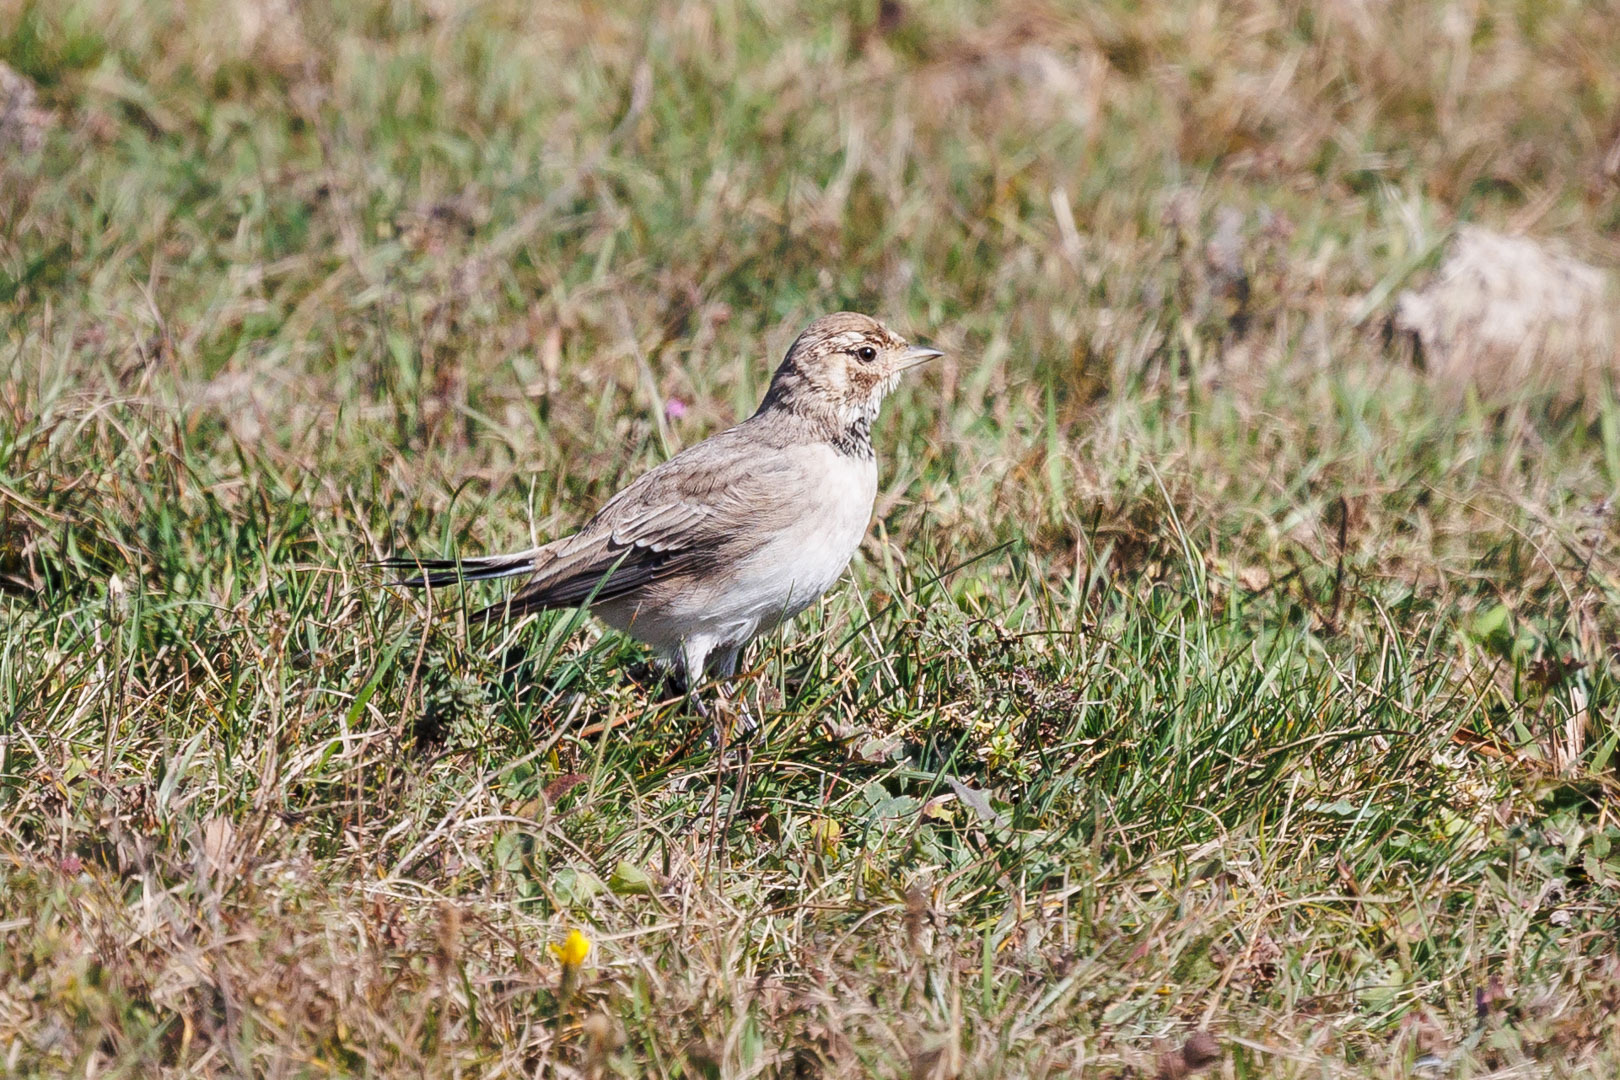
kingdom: Animalia
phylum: Chordata
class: Aves
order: Passeriformes
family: Alaudidae
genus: Eremophila
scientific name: Eremophila alpestris
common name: Horned lark
